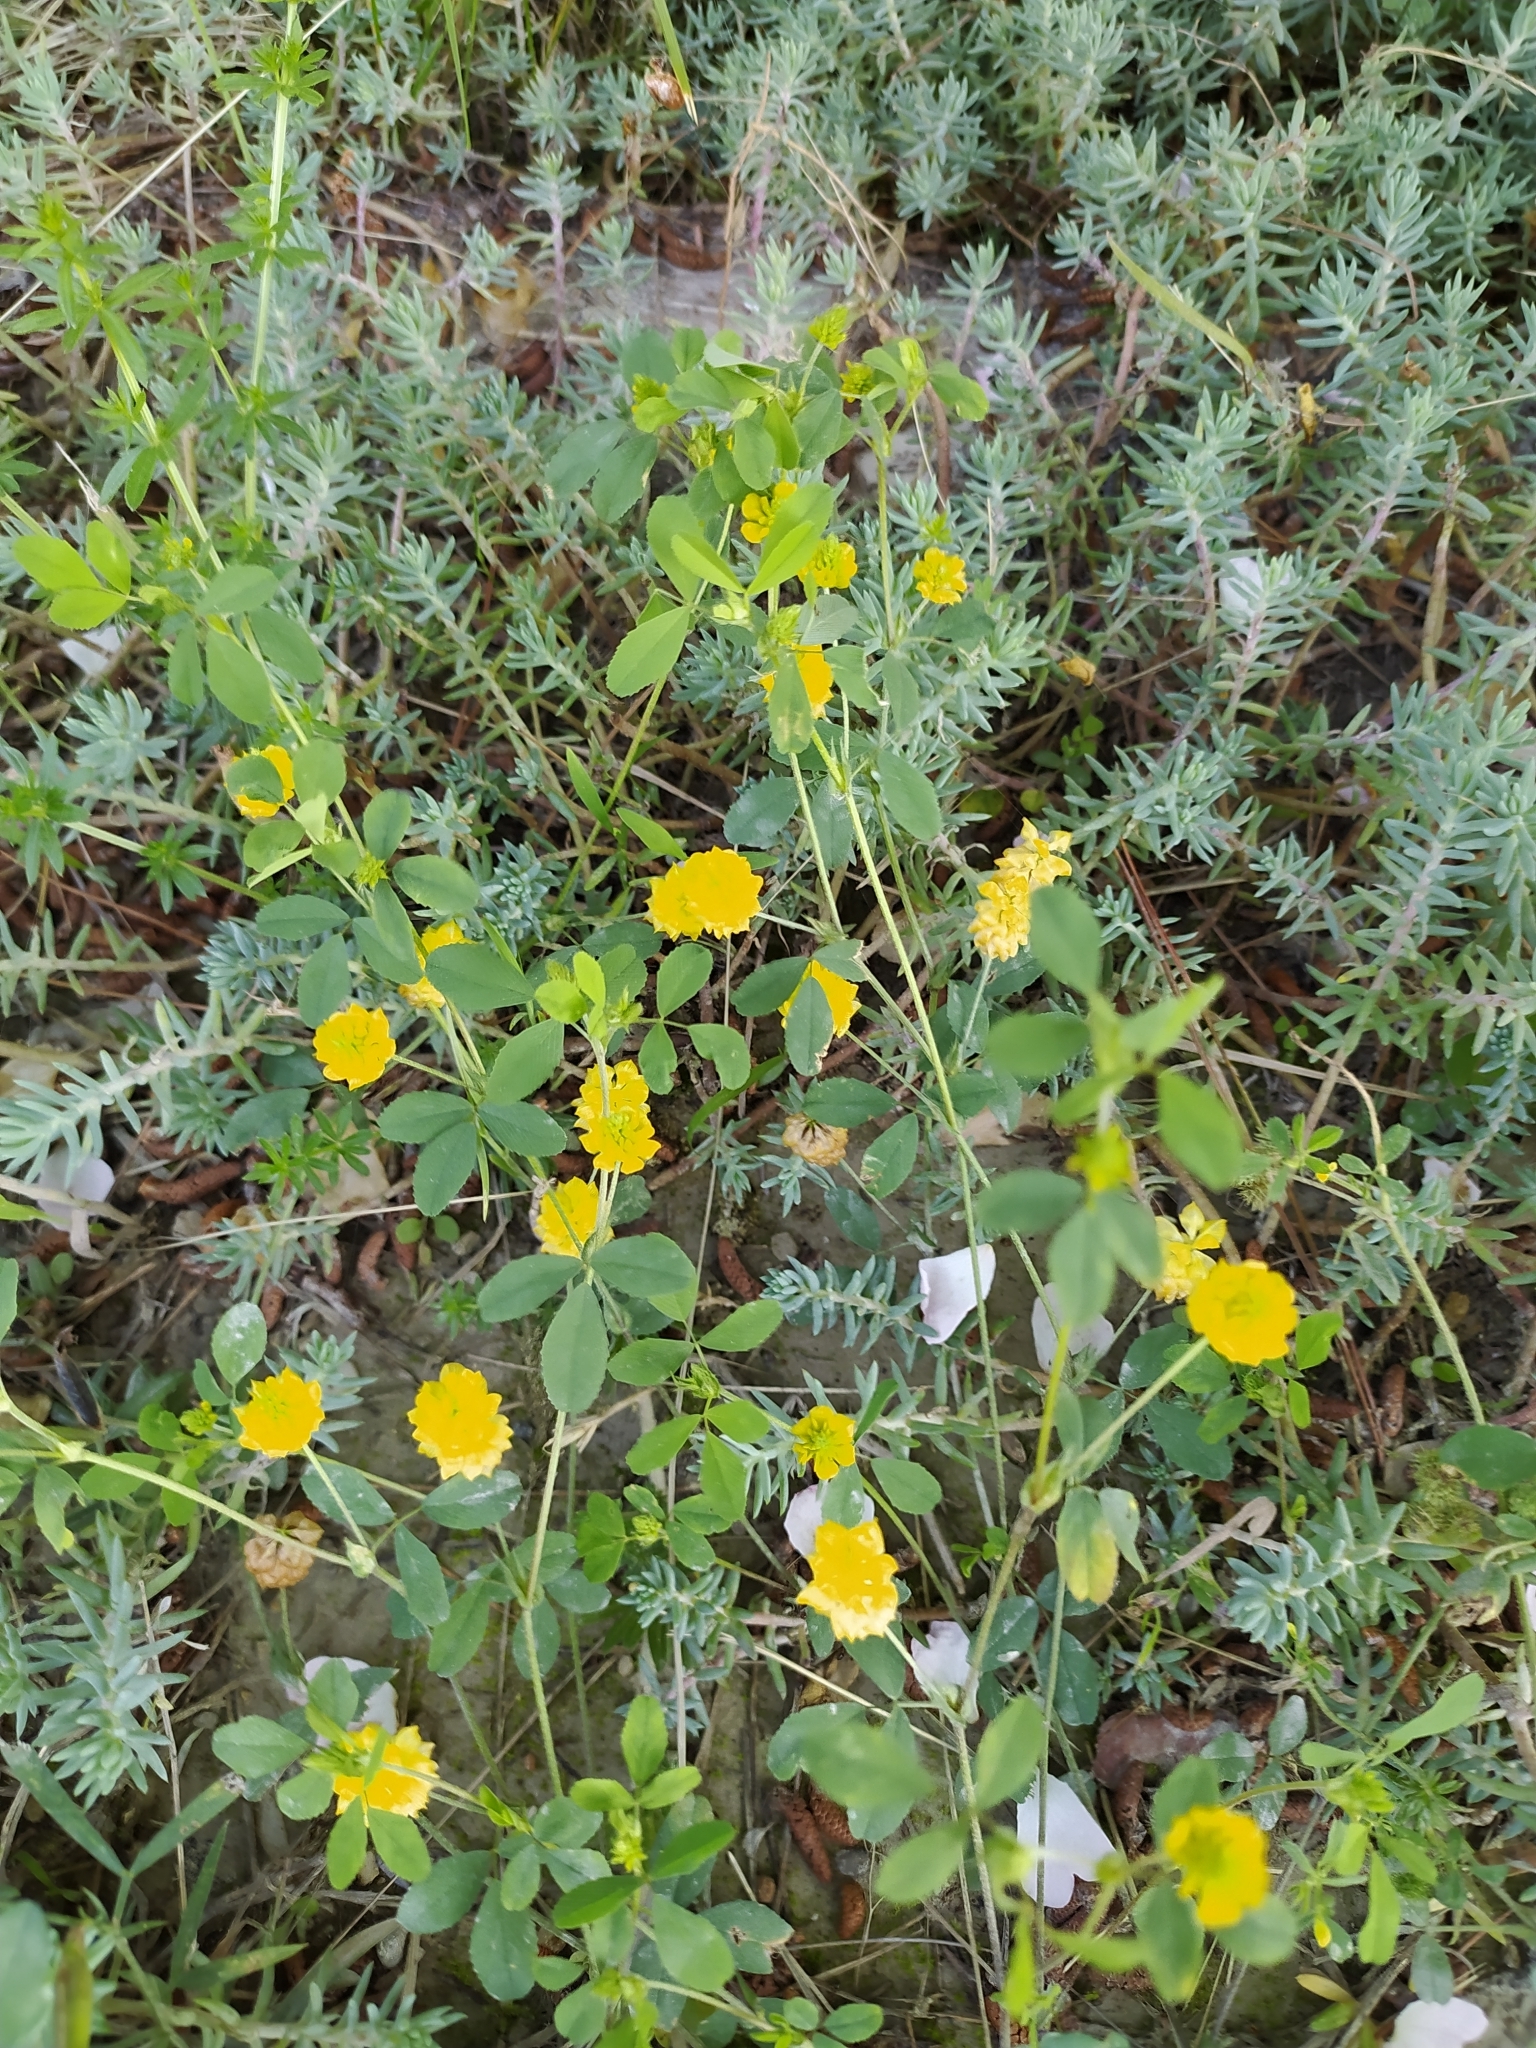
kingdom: Plantae
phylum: Tracheophyta
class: Magnoliopsida
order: Fabales
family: Fabaceae
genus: Trifolium
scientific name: Trifolium campestre
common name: Field clover
